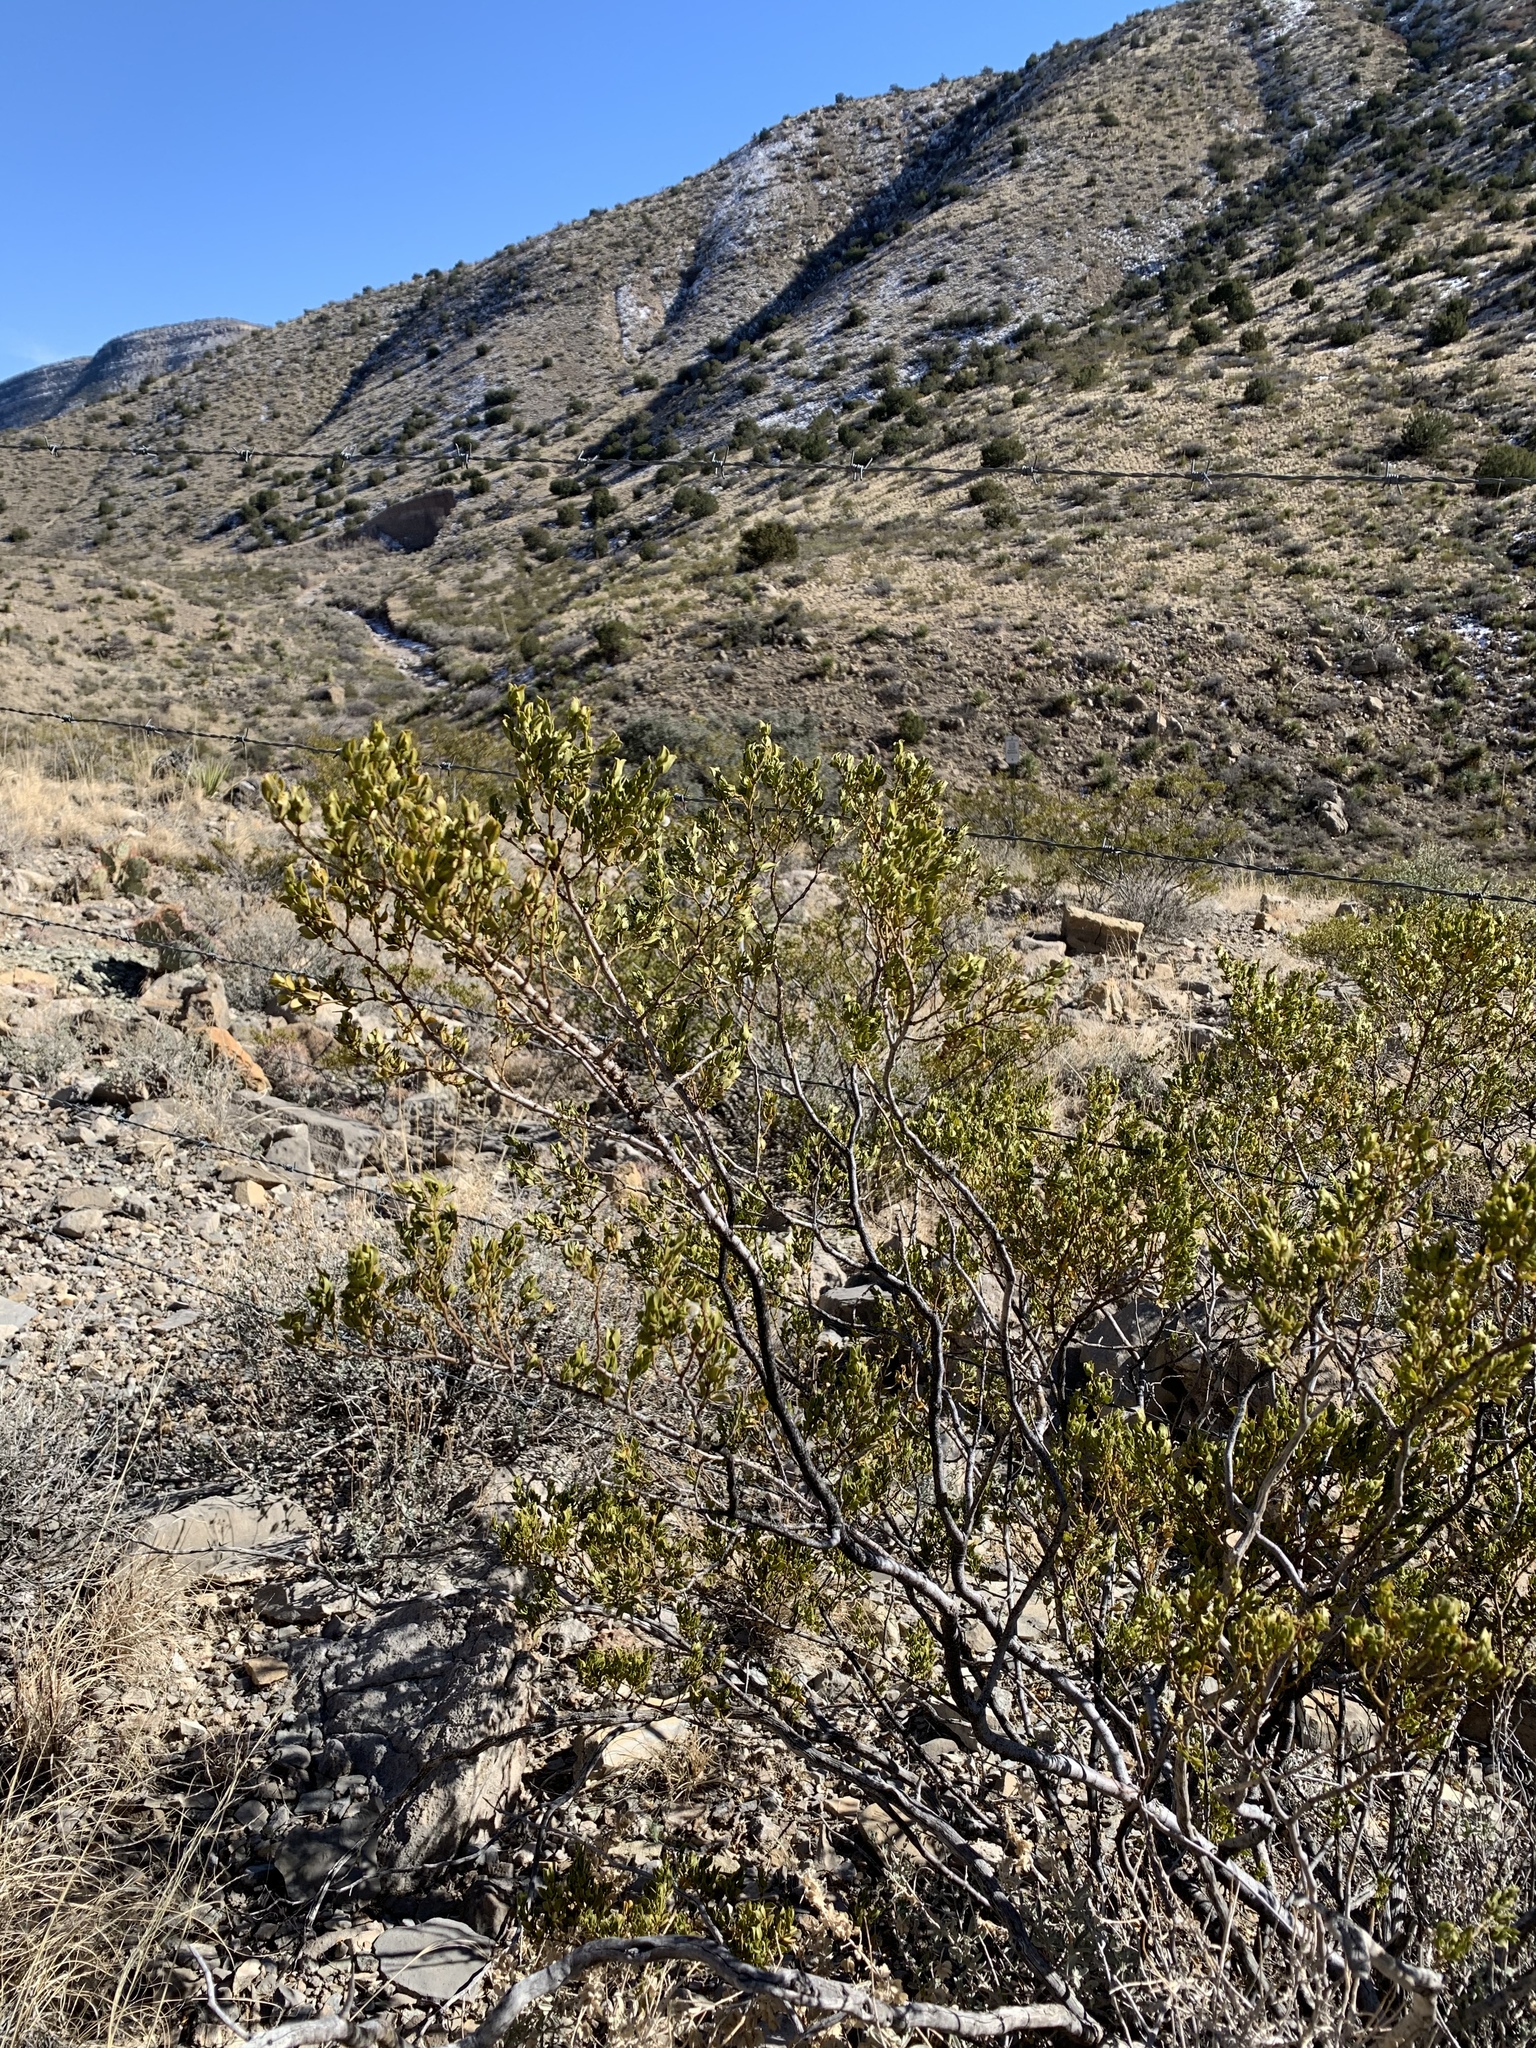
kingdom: Plantae
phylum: Tracheophyta
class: Magnoliopsida
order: Zygophyllales
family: Zygophyllaceae
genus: Larrea
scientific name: Larrea tridentata
